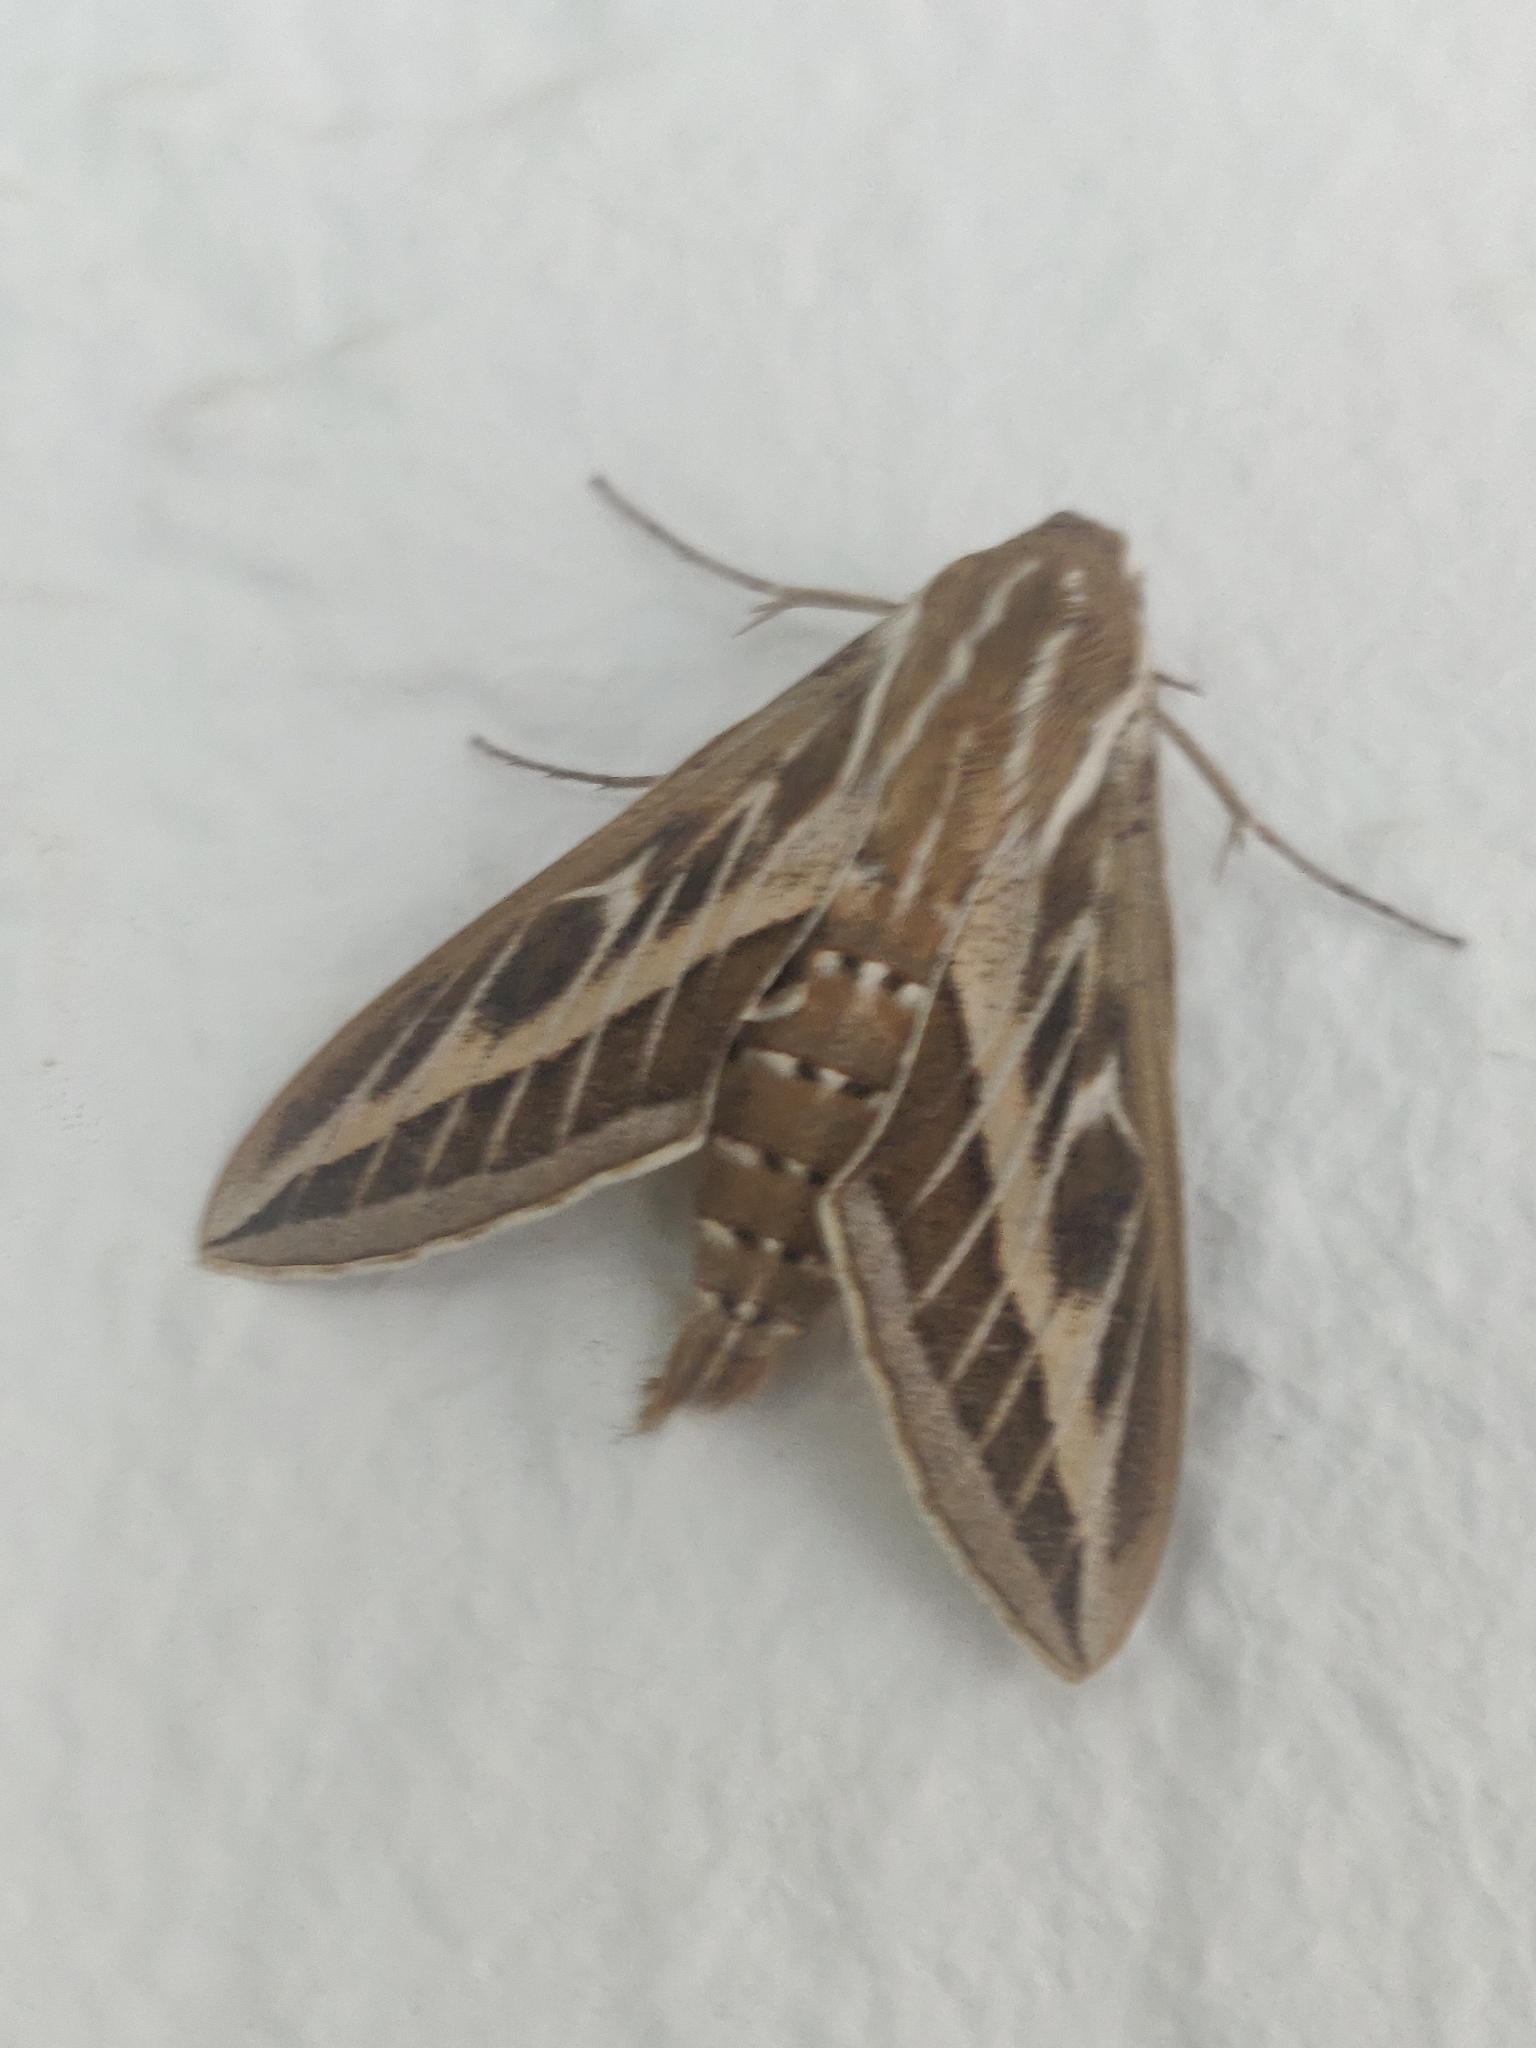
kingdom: Animalia
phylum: Arthropoda
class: Insecta
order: Lepidoptera
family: Sphingidae
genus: Hyles
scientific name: Hyles livornica
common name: Striped hawk-moth
